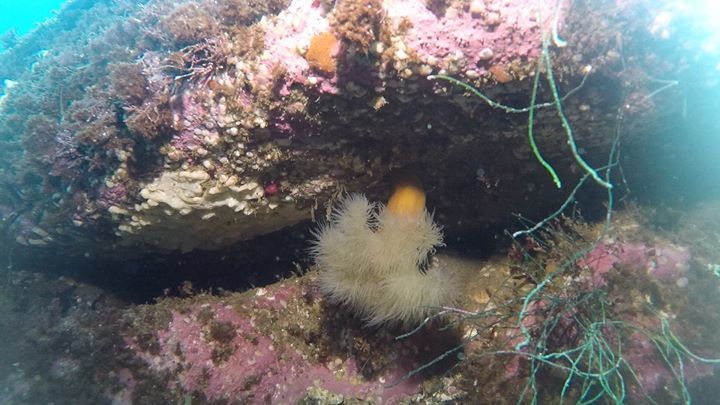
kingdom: Animalia
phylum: Cnidaria
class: Anthozoa
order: Actiniaria
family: Metridiidae
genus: Metridium
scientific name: Metridium senile
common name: Clonal plumose anemone
